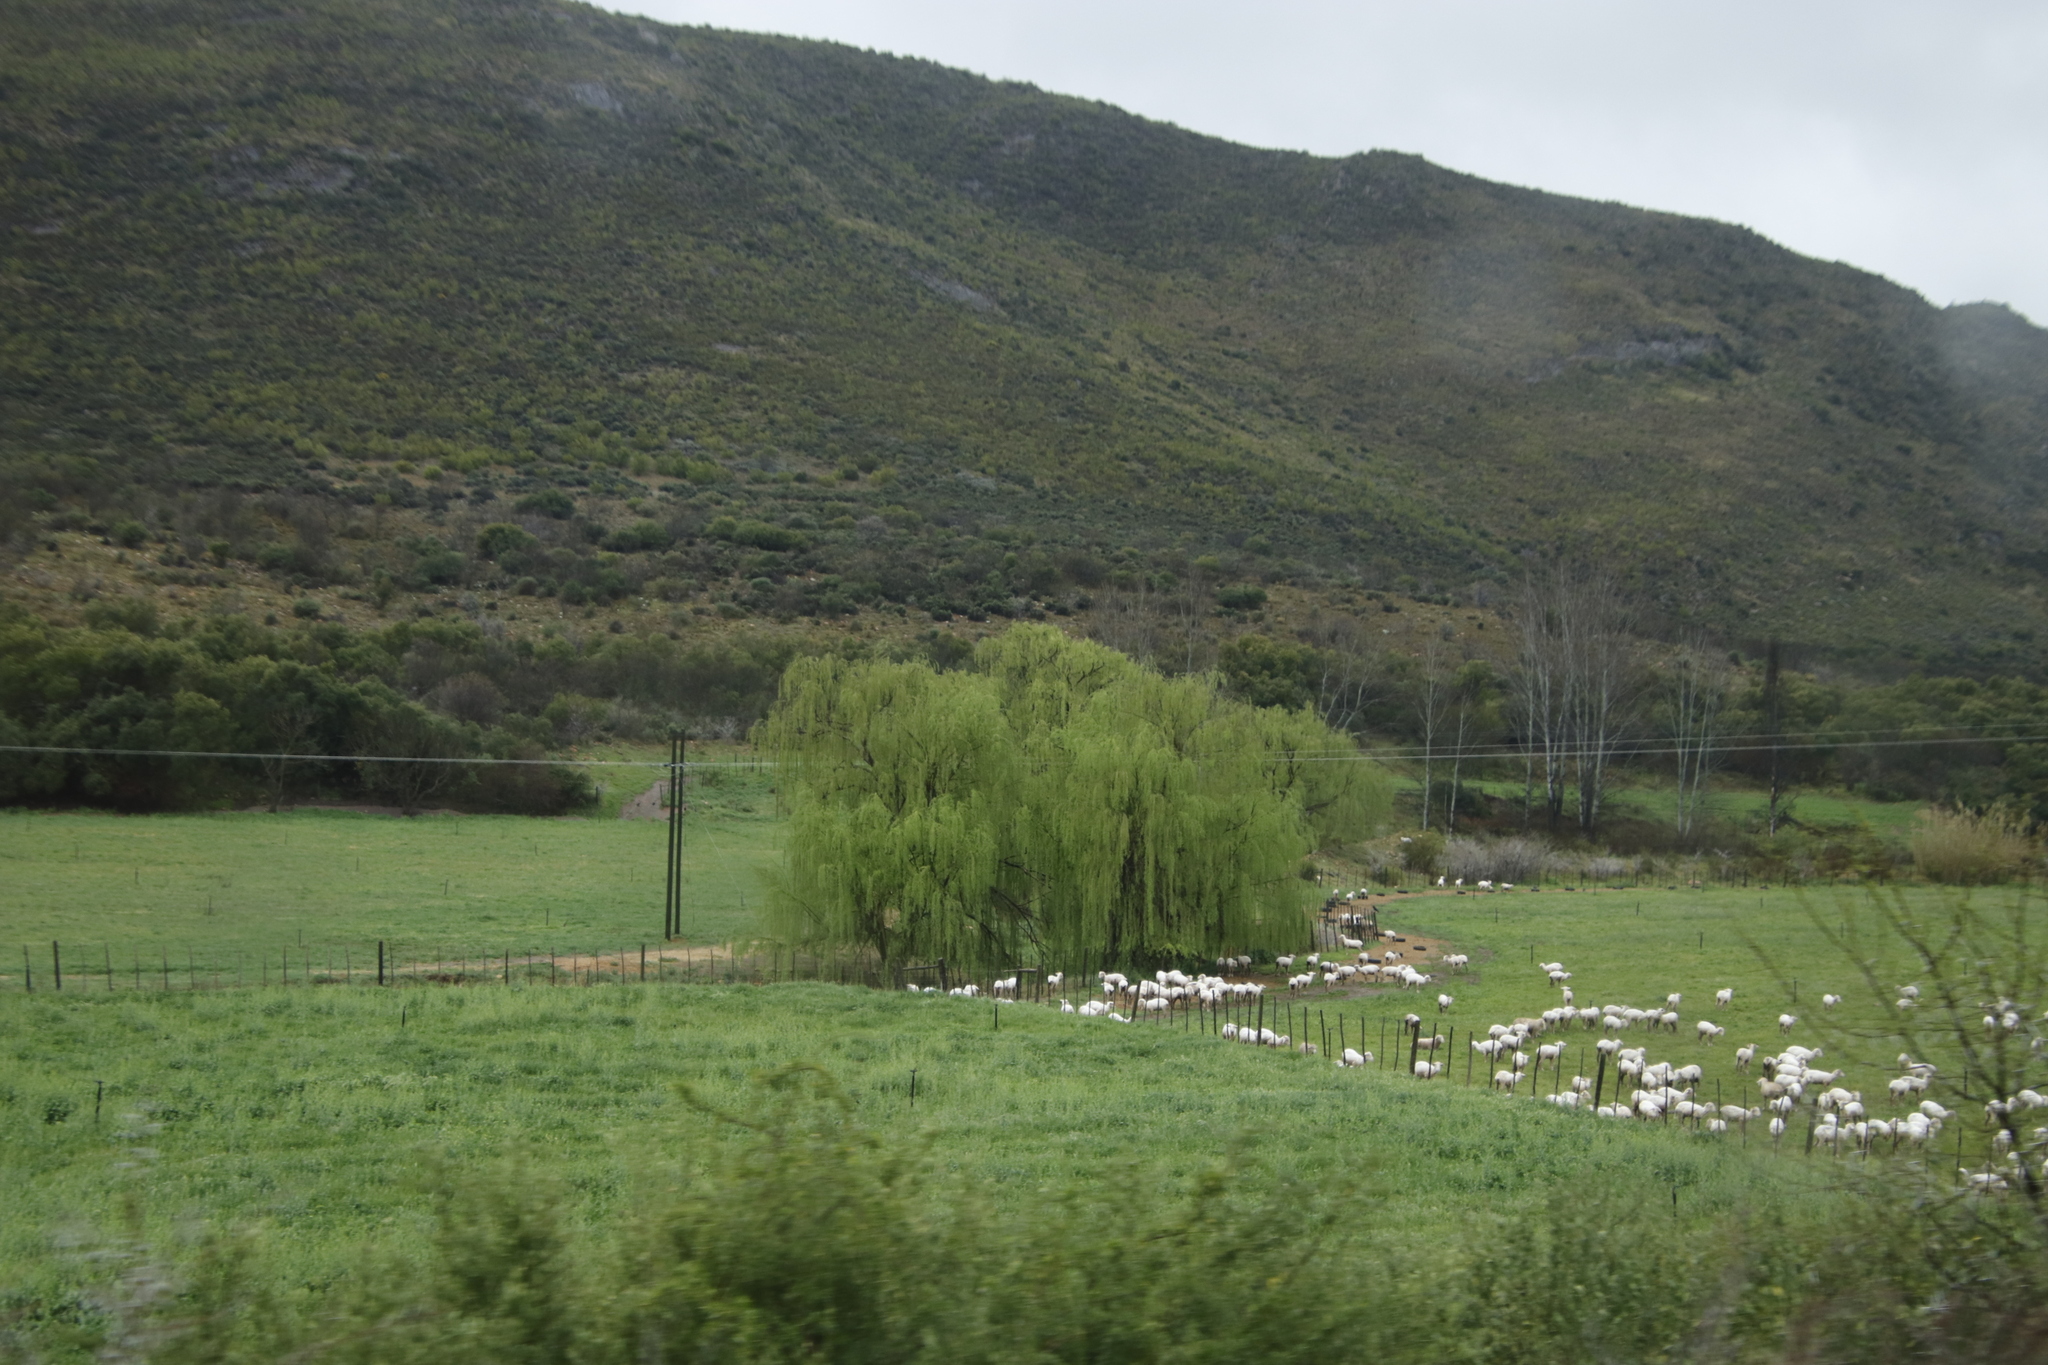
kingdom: Plantae
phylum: Tracheophyta
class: Magnoliopsida
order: Malpighiales
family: Salicaceae
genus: Salix
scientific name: Salix babylonica
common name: Weeping willow
